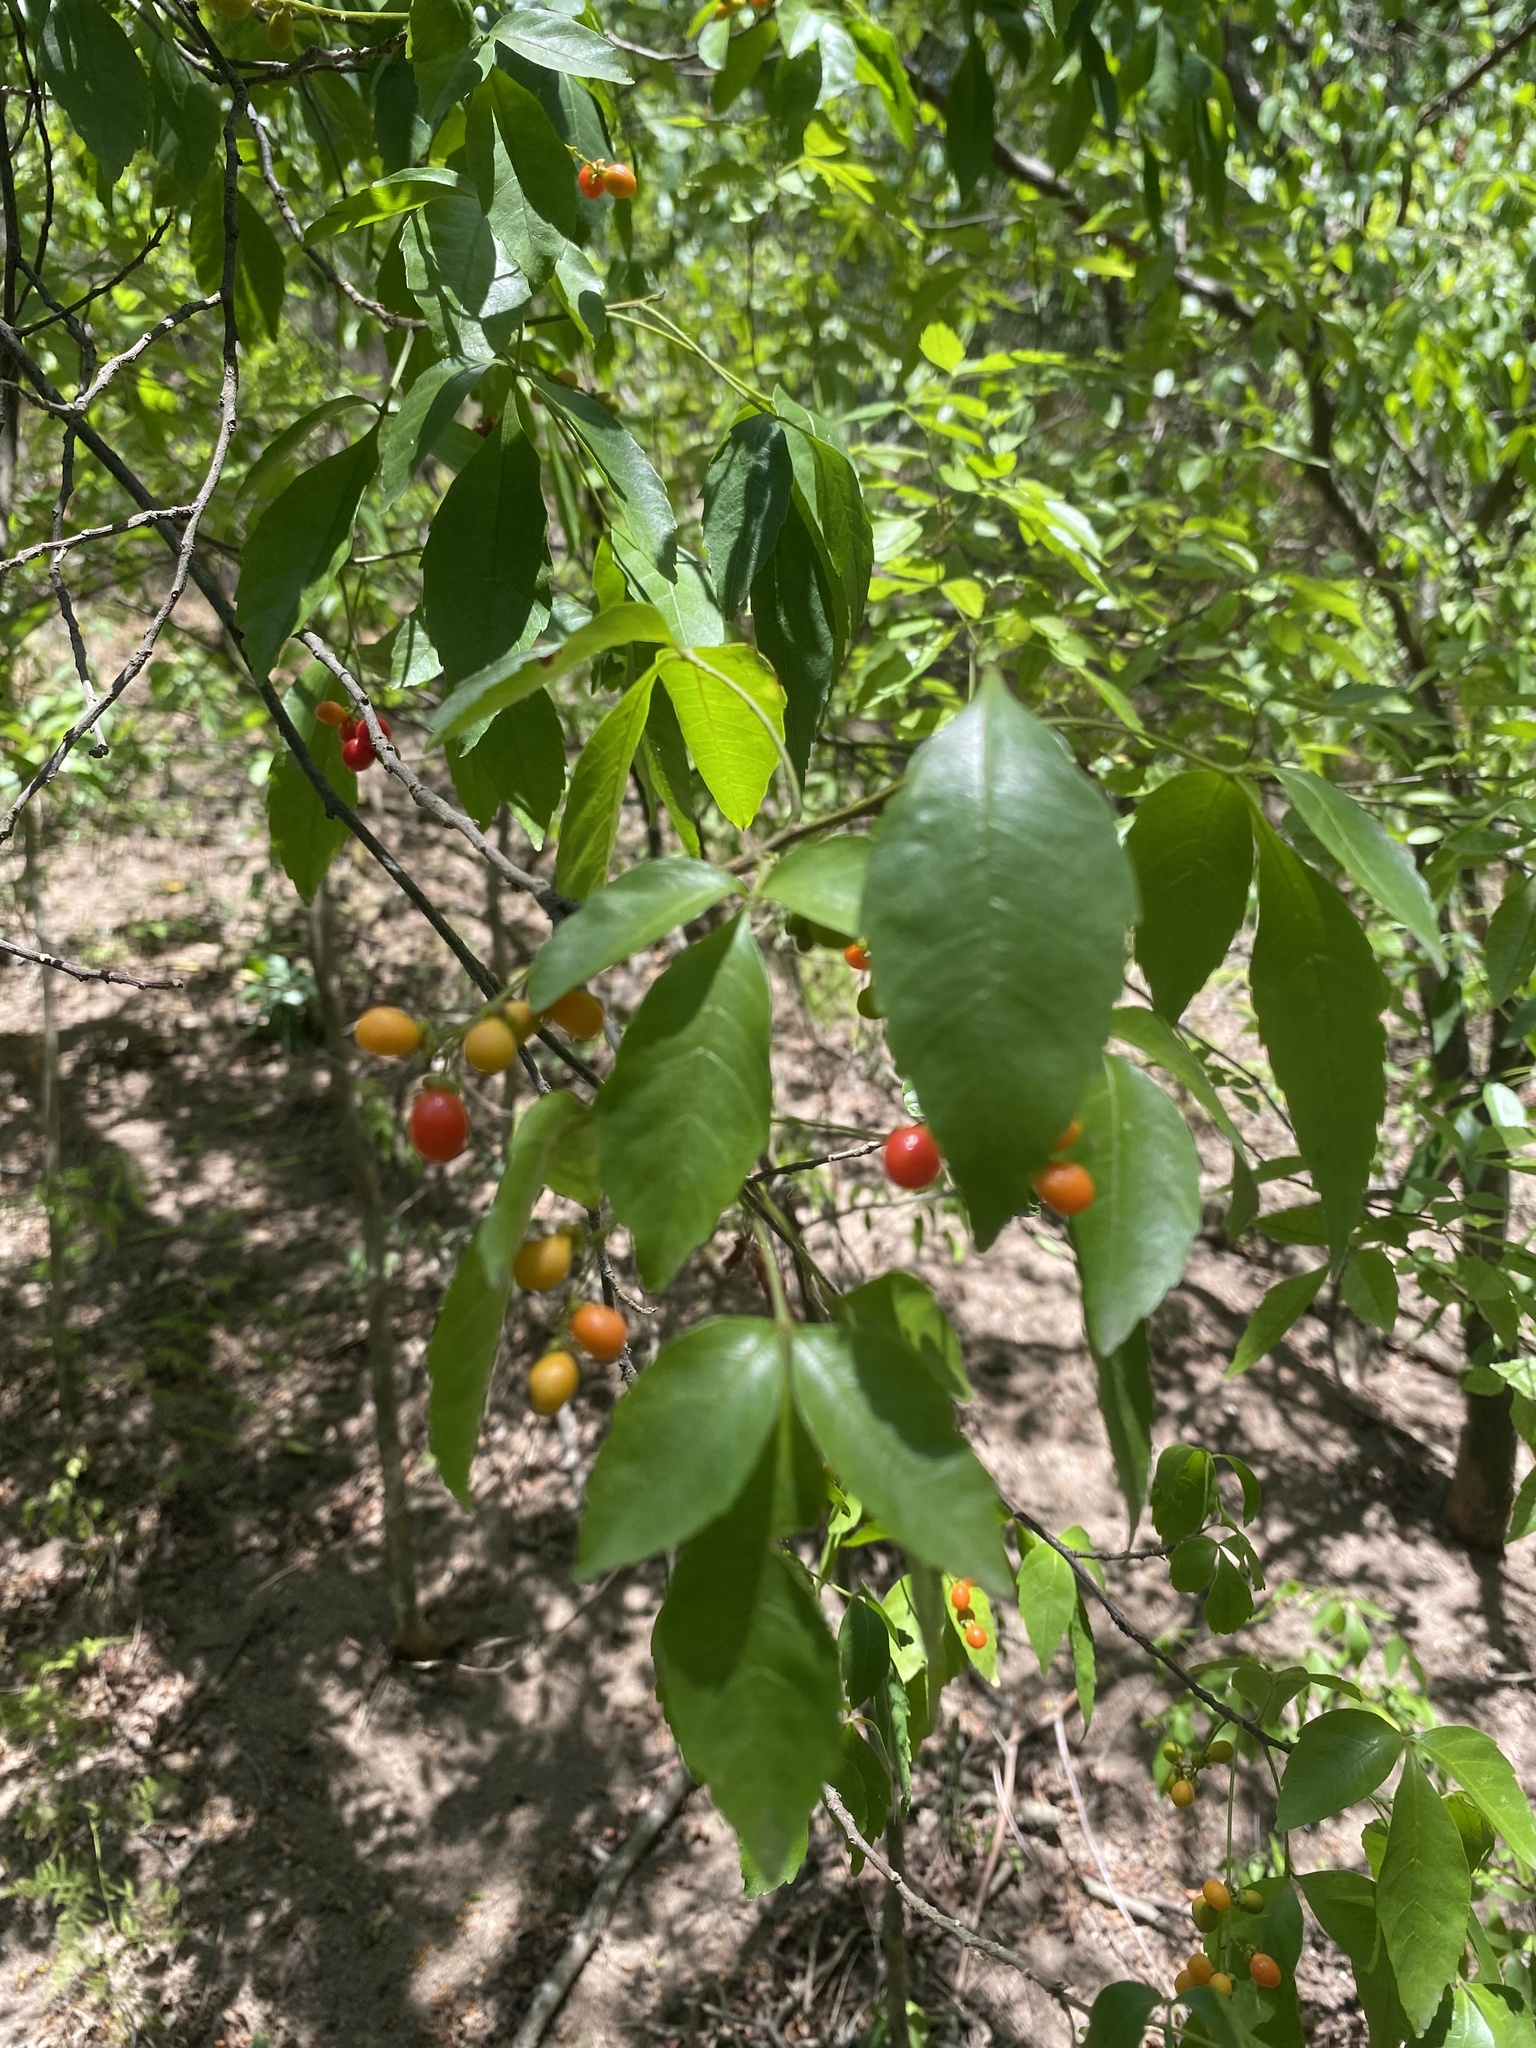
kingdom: Plantae
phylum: Tracheophyta
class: Magnoliopsida
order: Sapindales
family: Sapindaceae
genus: Allophylus
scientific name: Allophylus edulis
